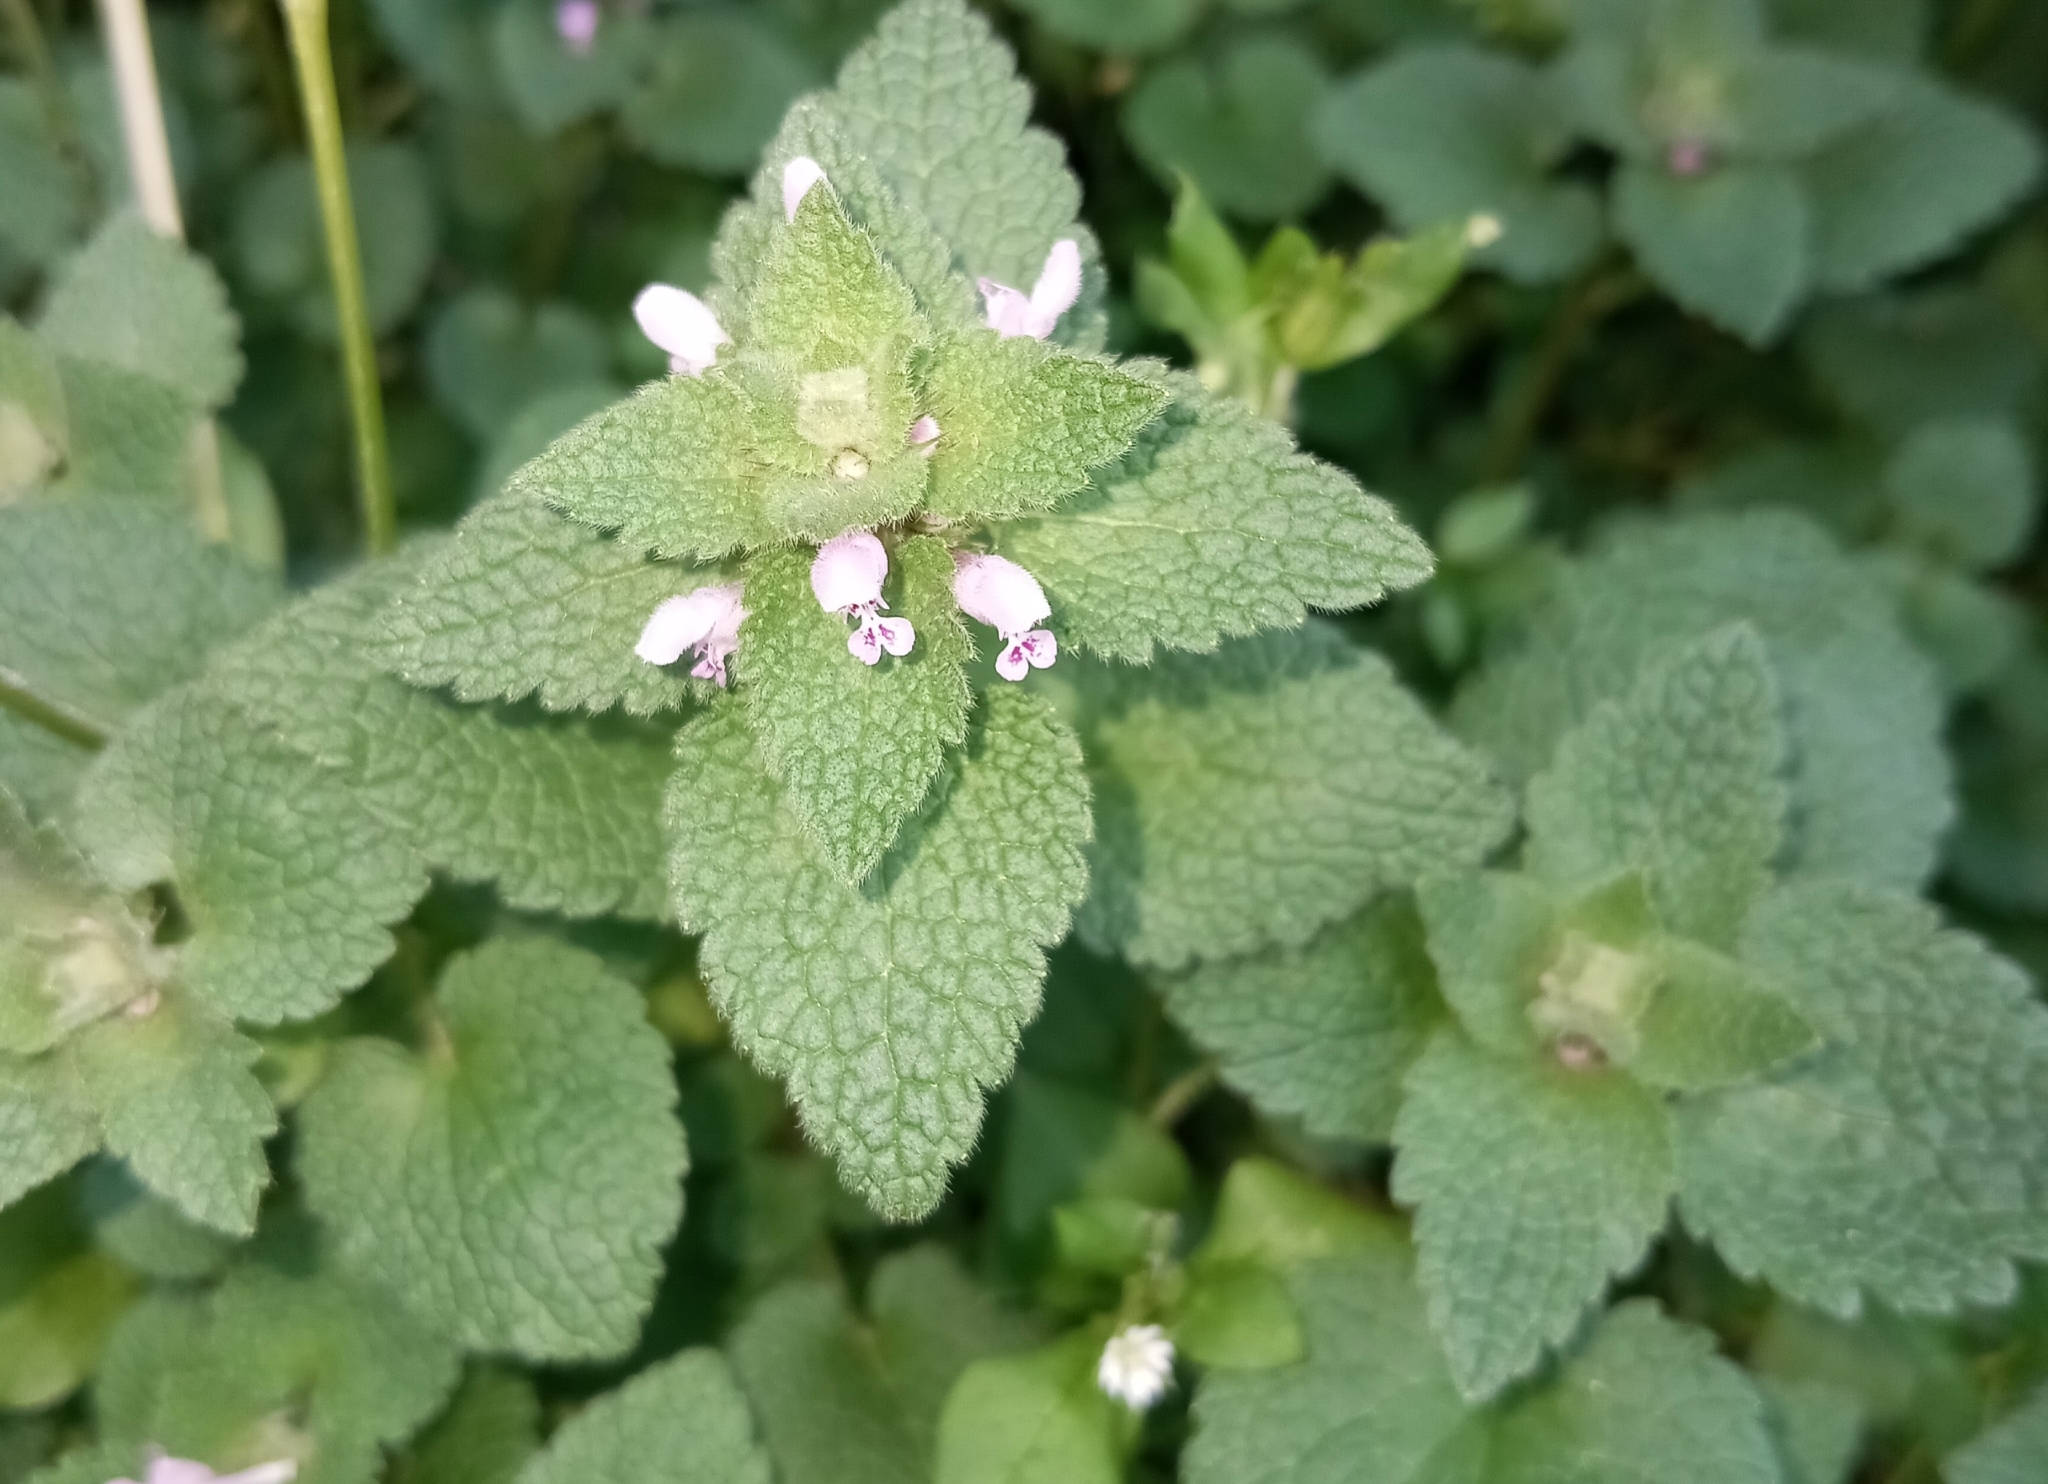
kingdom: Plantae
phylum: Tracheophyta
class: Magnoliopsida
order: Lamiales
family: Lamiaceae
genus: Lamium
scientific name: Lamium purpureum
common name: Red dead-nettle
